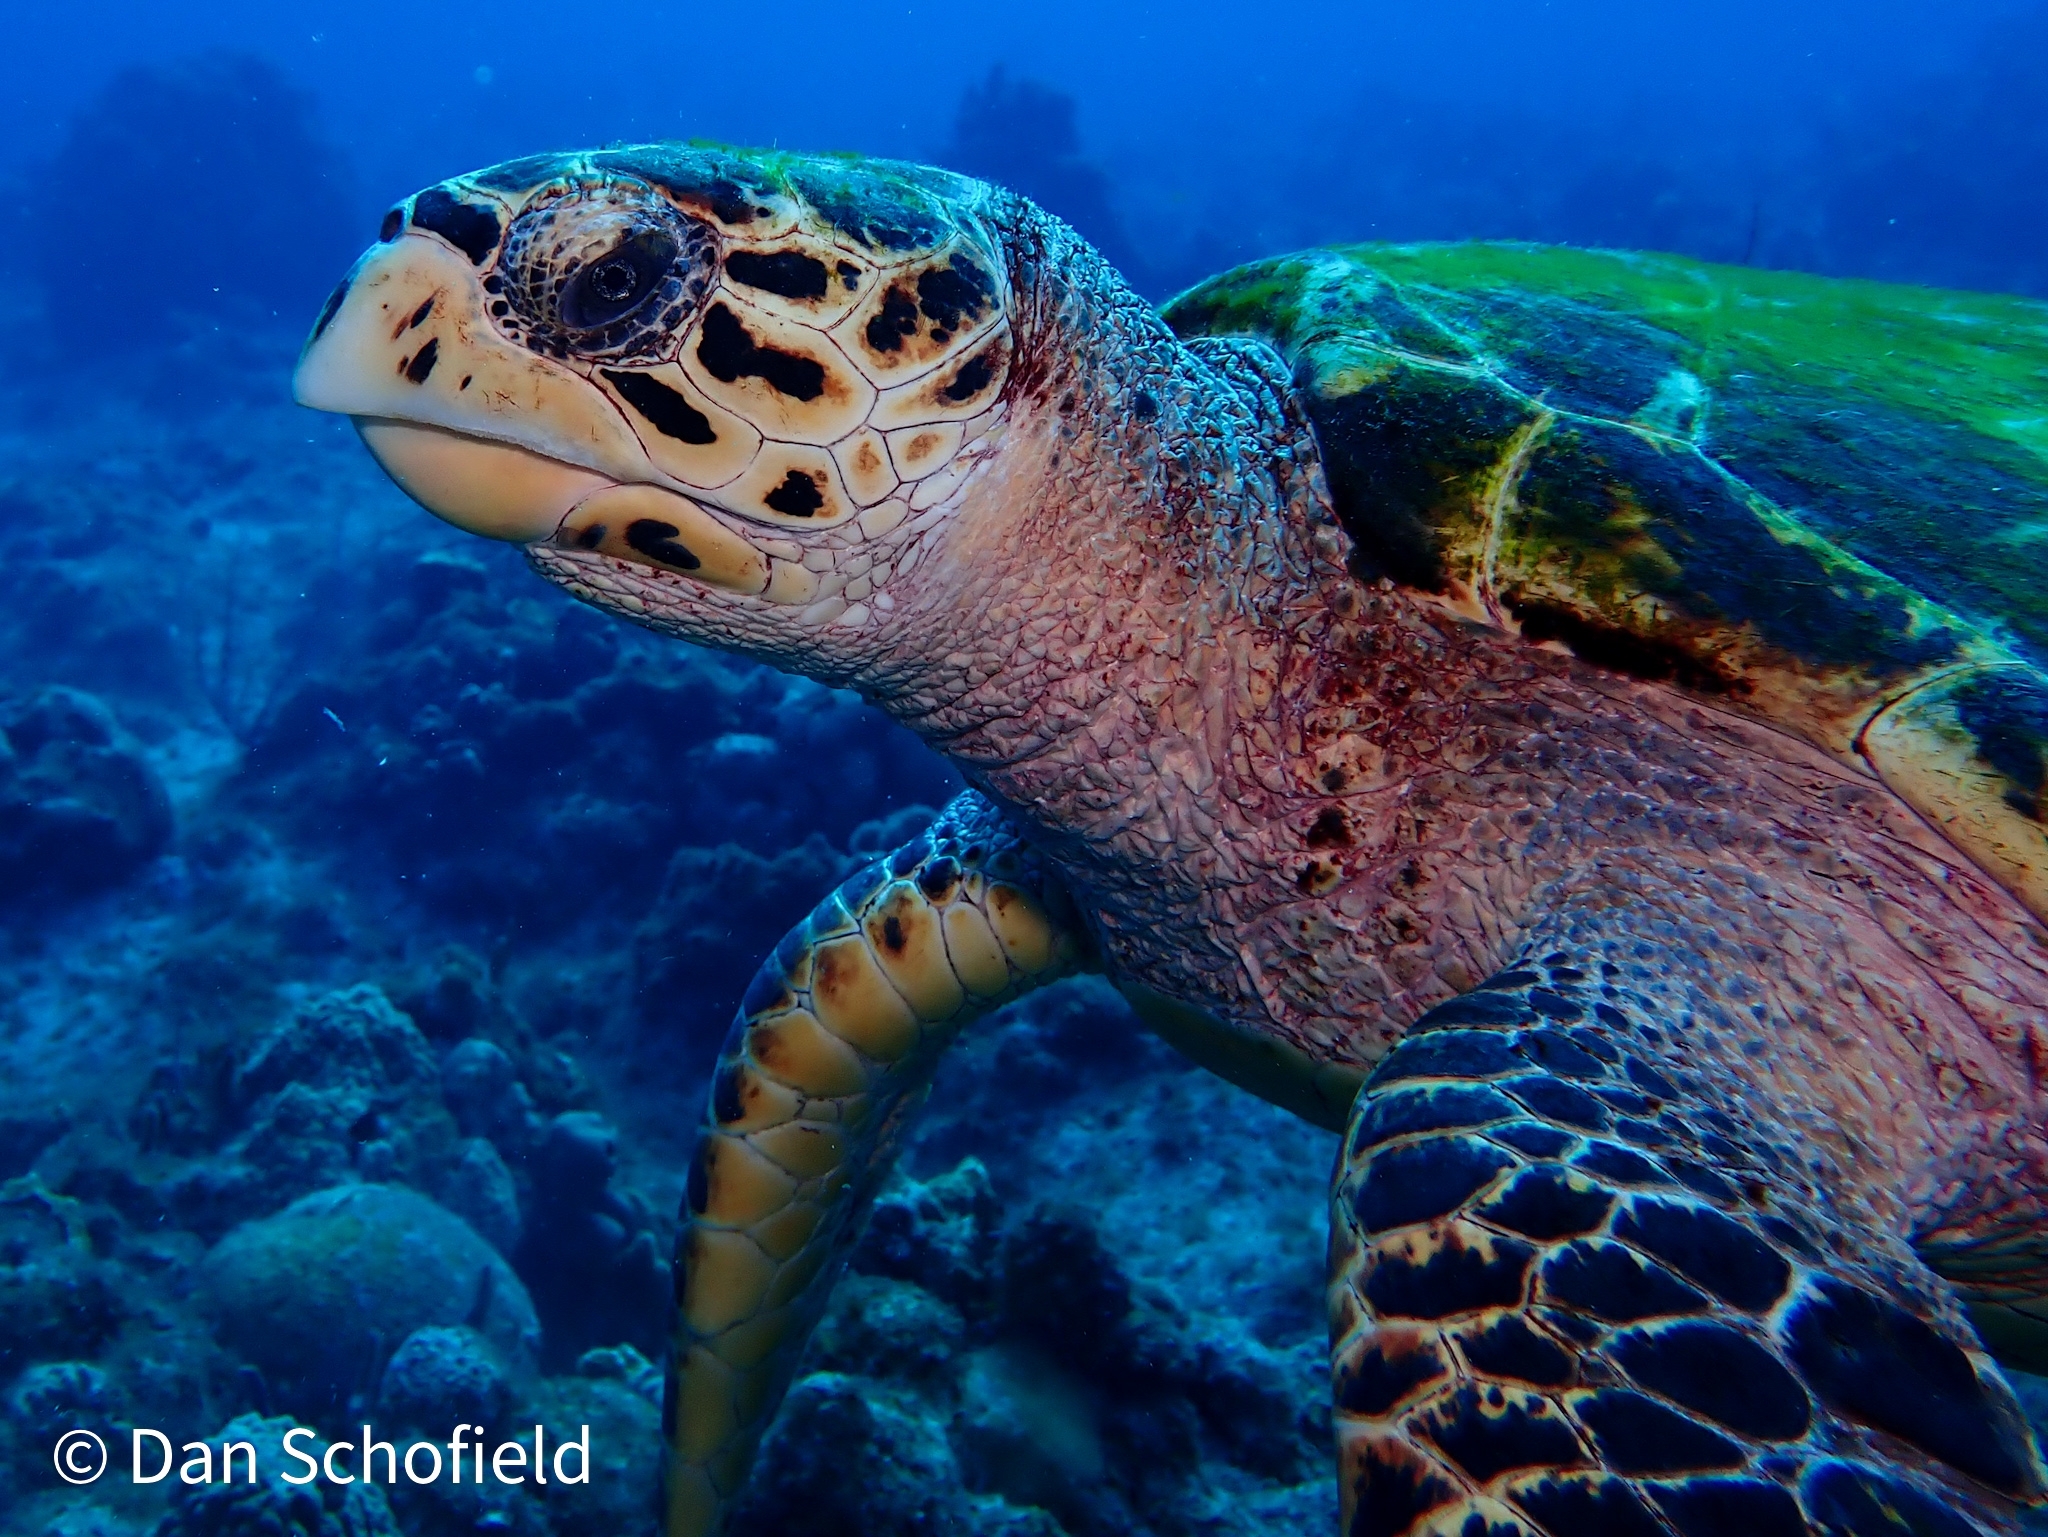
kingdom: Animalia
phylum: Chordata
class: Testudines
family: Cheloniidae
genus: Eretmochelys
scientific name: Eretmochelys imbricata
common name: Hawksbill turtle
